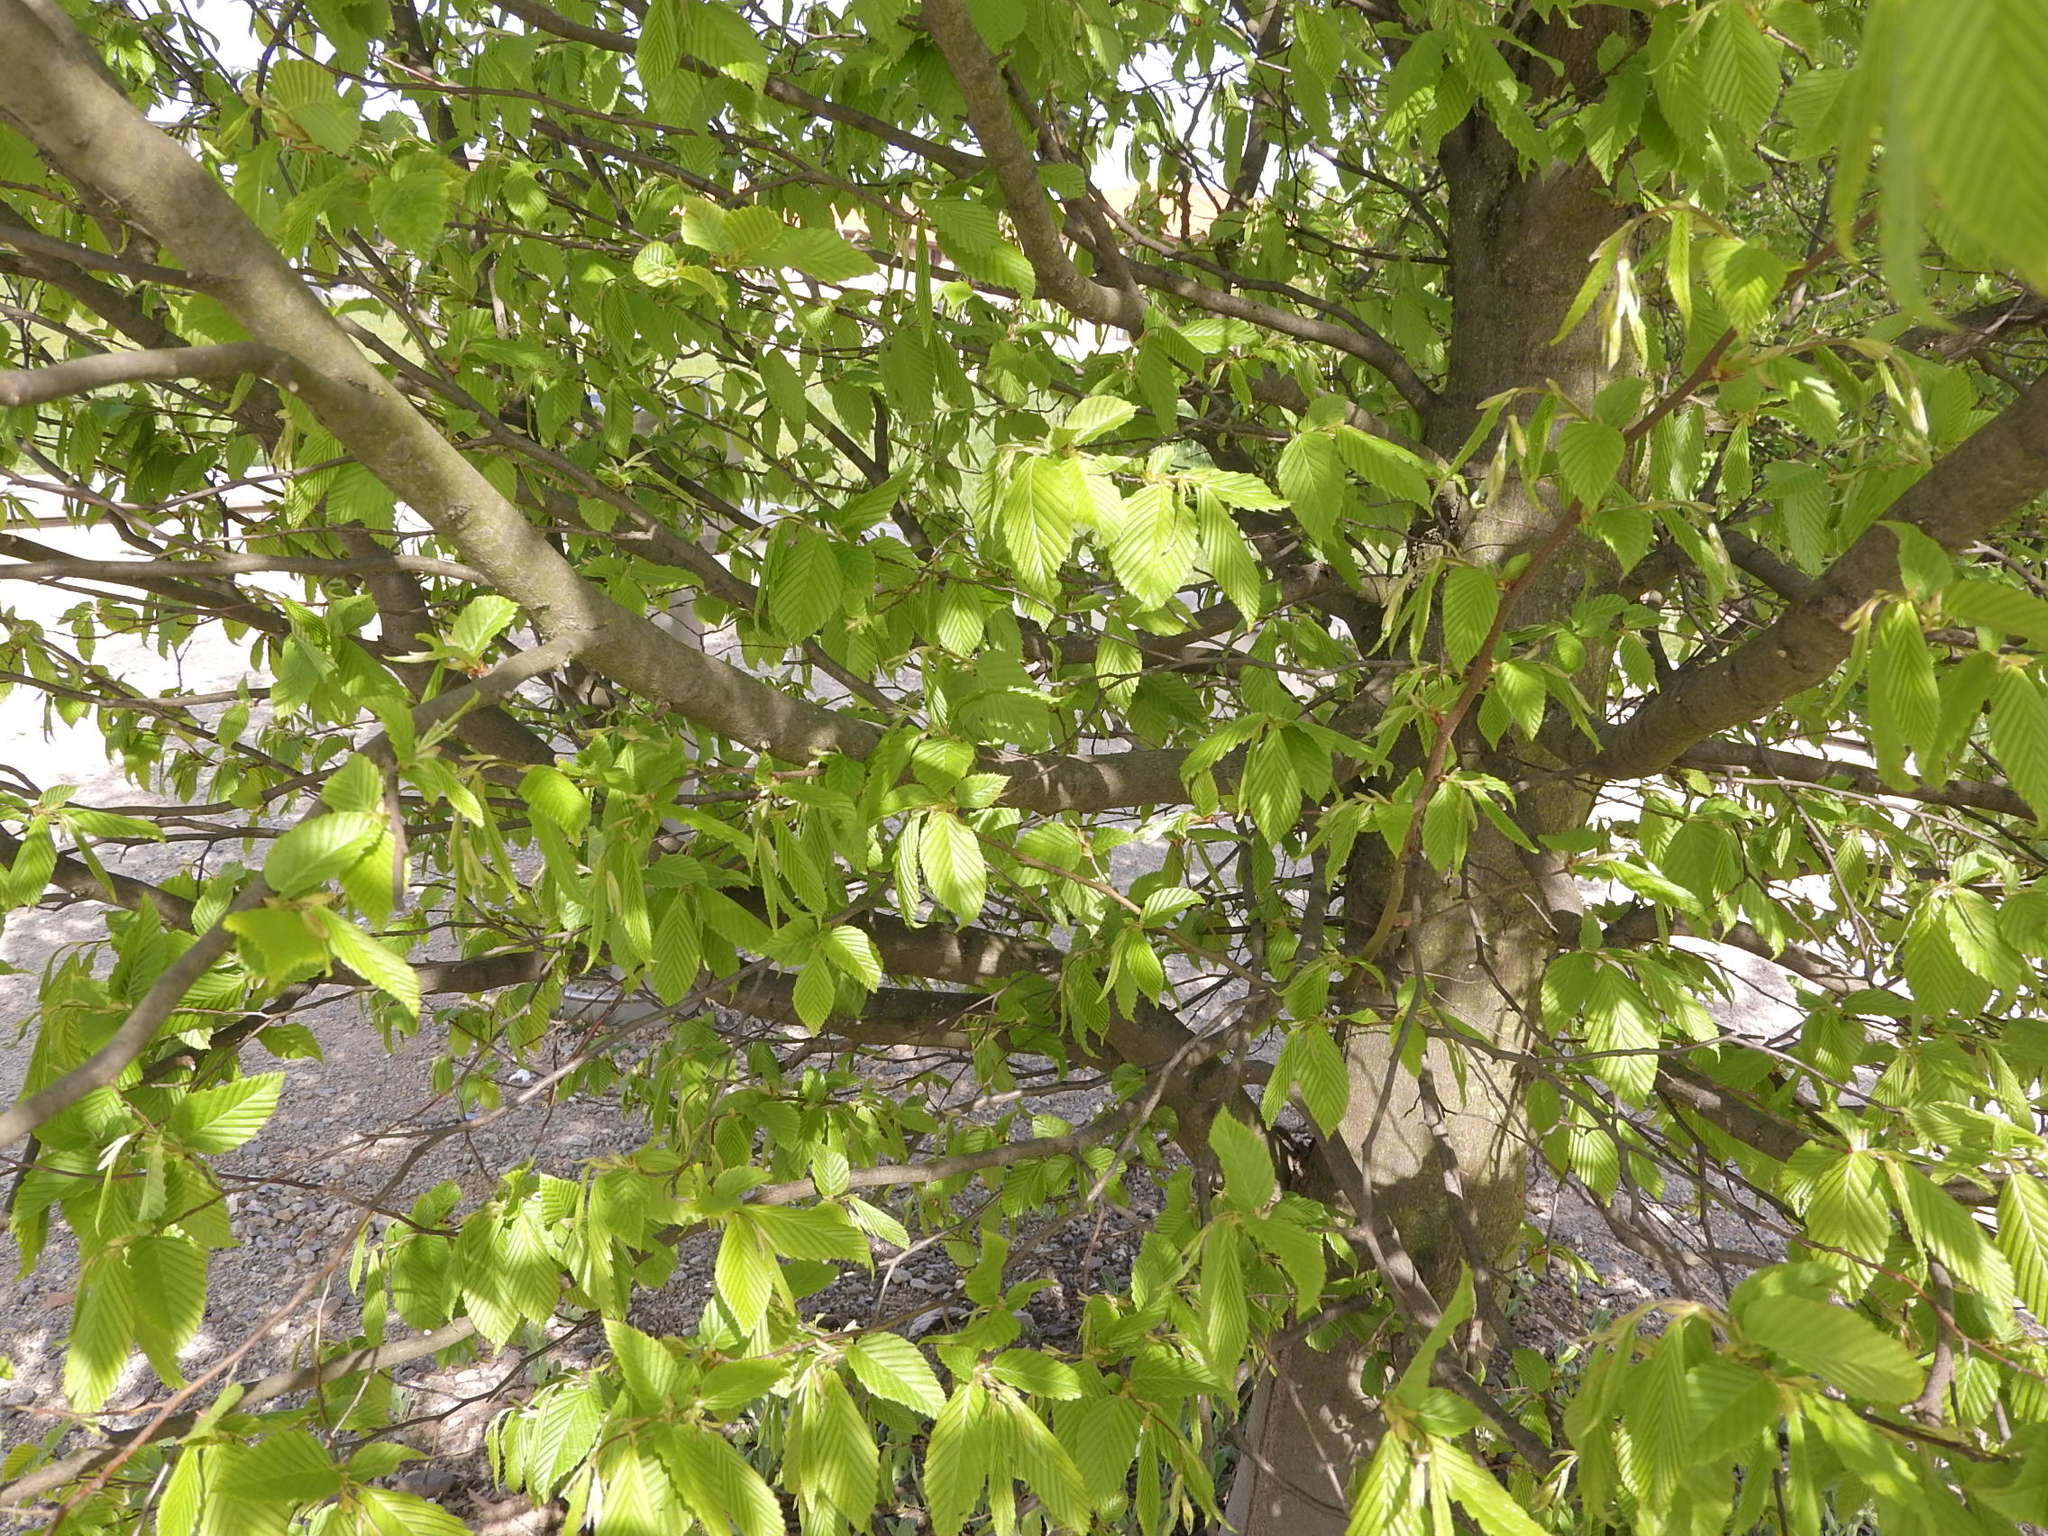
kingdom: Plantae
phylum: Tracheophyta
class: Magnoliopsida
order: Fagales
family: Betulaceae
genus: Carpinus
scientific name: Carpinus betulus
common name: Hornbeam
